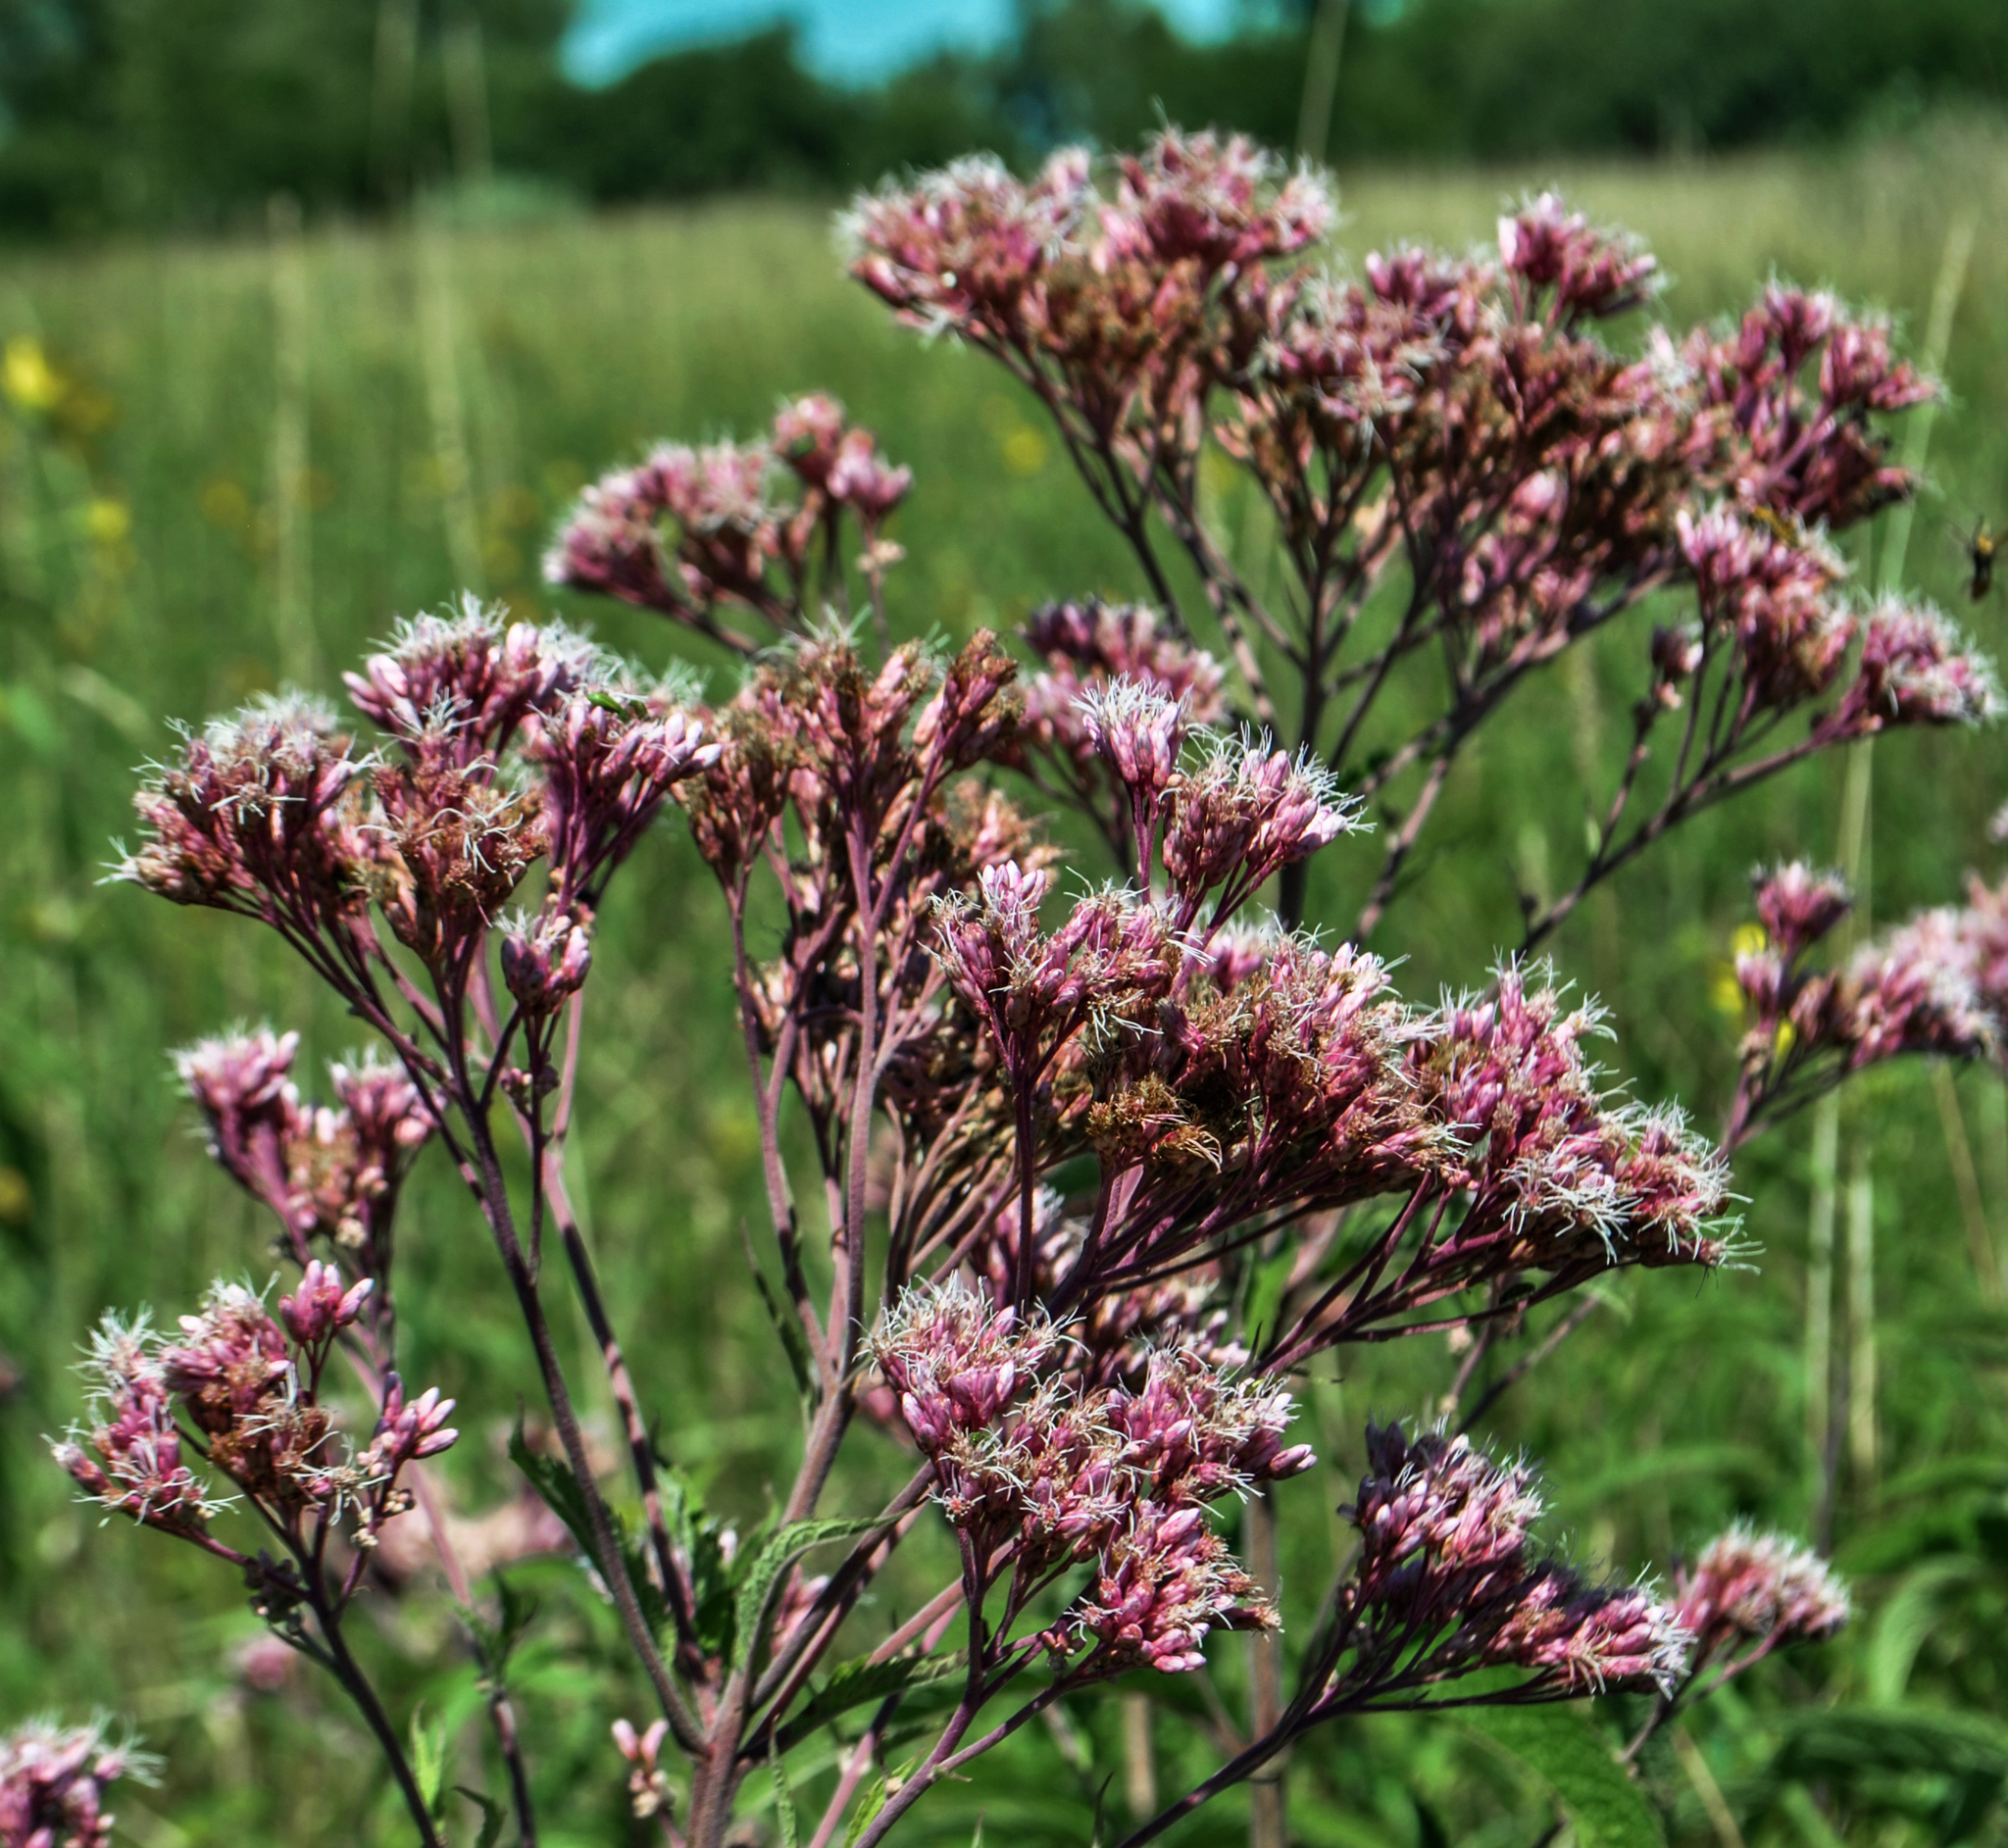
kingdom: Plantae
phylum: Tracheophyta
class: Magnoliopsida
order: Asterales
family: Asteraceae
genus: Eutrochium
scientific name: Eutrochium maculatum
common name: Spotted joe pye weed
